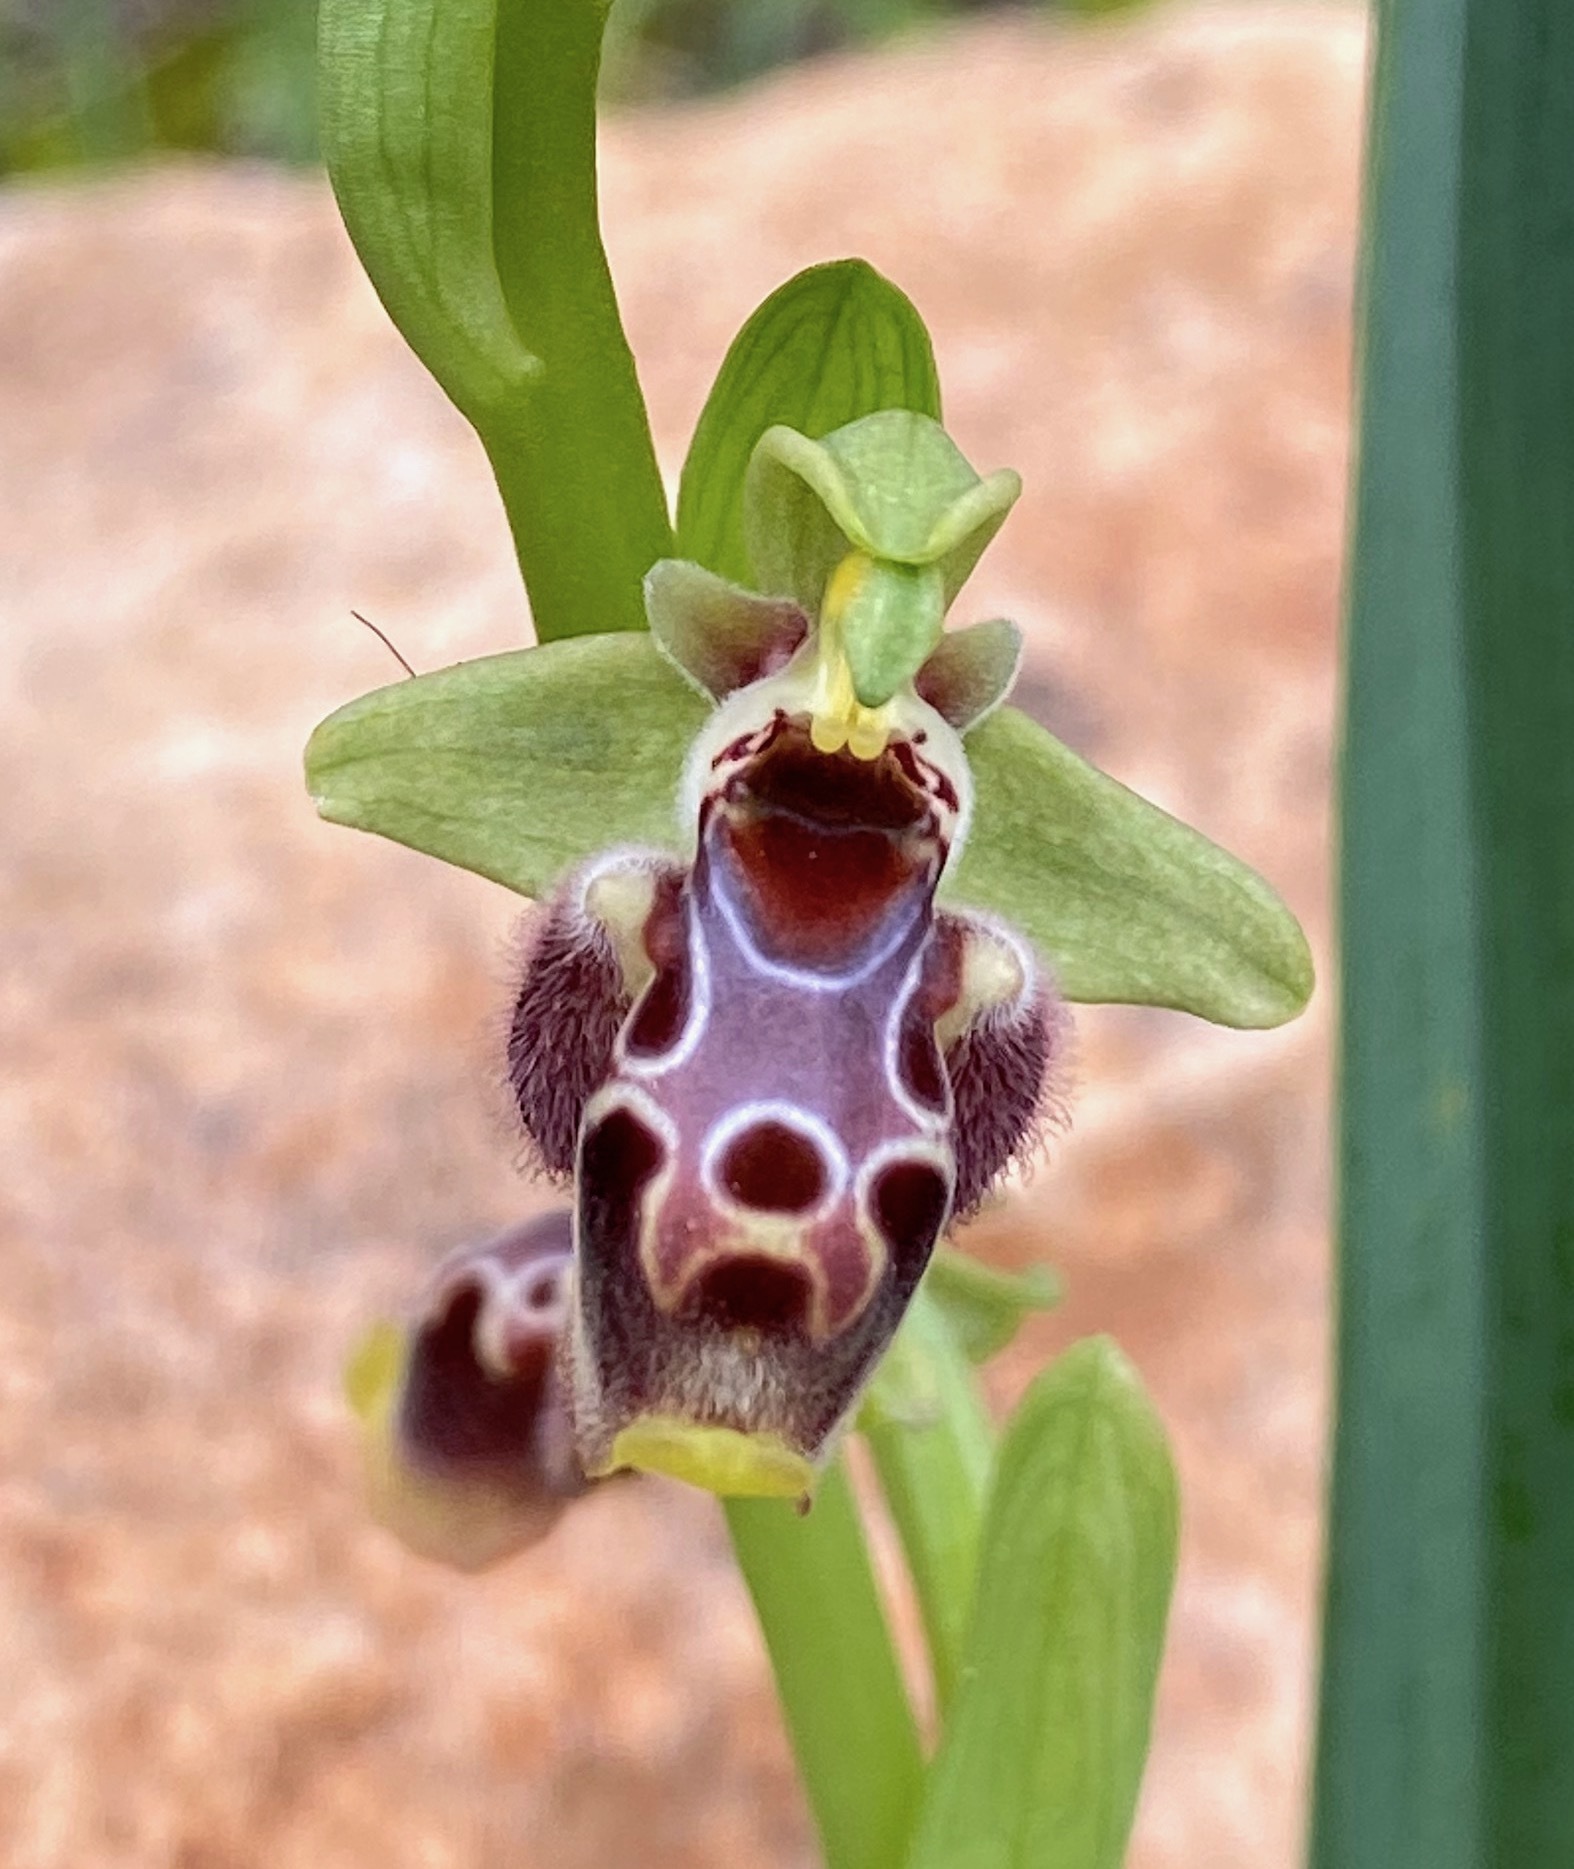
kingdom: Plantae
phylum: Tracheophyta
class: Liliopsida
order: Asparagales
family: Orchidaceae
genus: Ophrys
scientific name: Ophrys umbilicata
